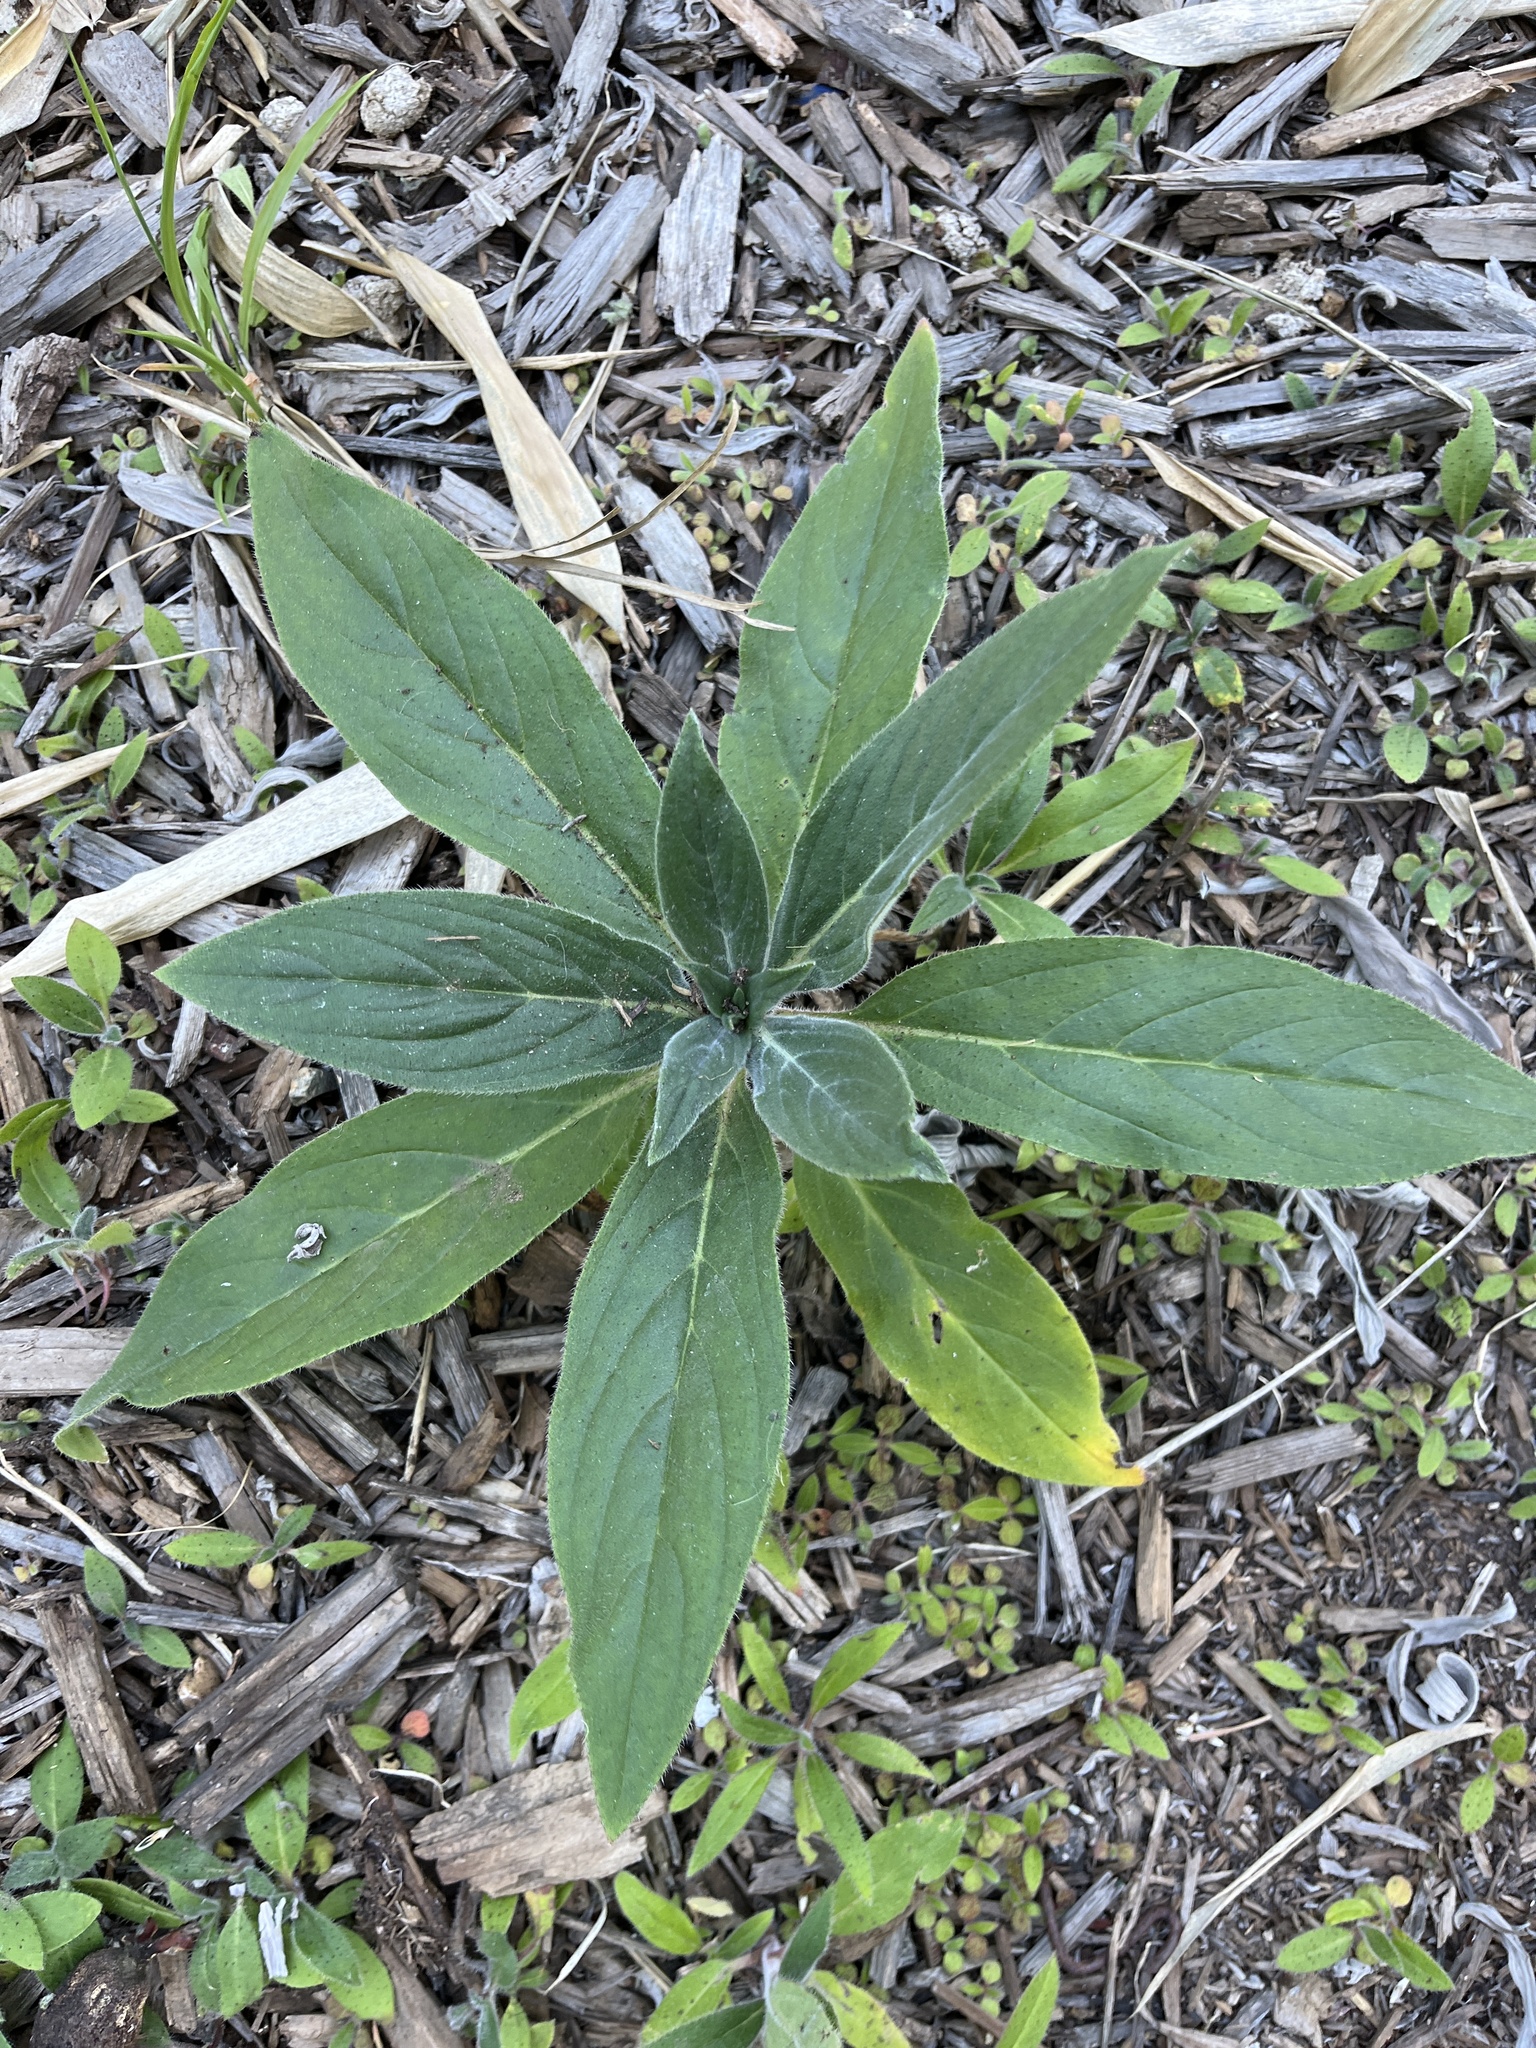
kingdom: Plantae
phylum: Tracheophyta
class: Magnoliopsida
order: Boraginales
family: Boraginaceae
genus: Echium
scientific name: Echium candicans
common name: Pride of madeira
